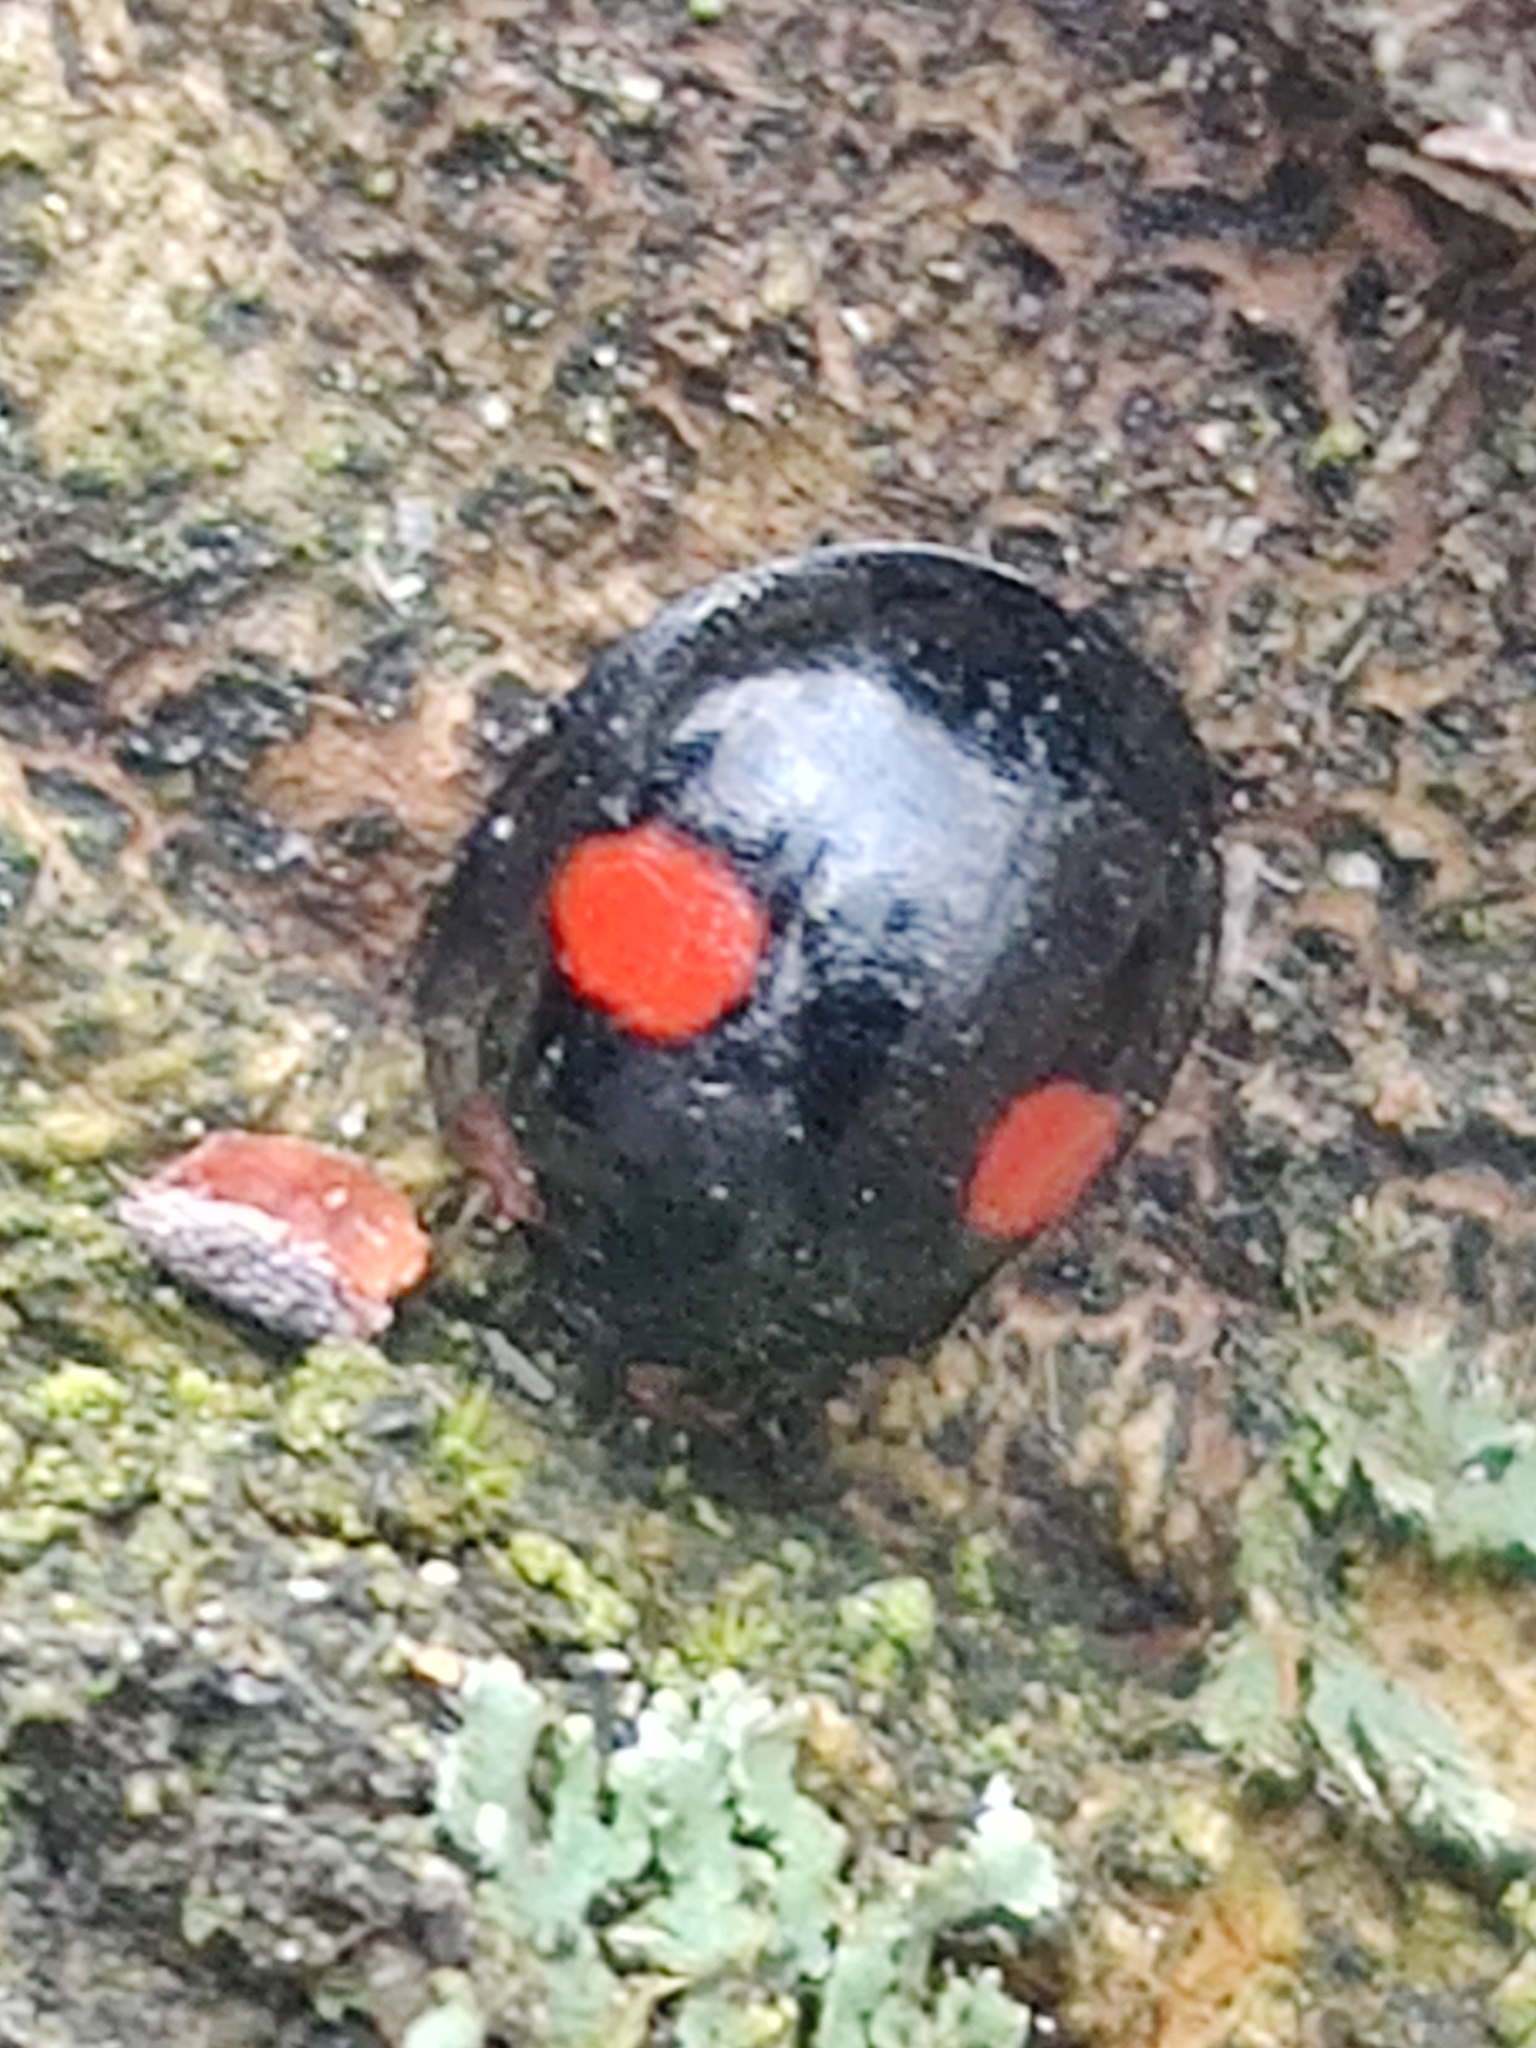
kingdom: Animalia
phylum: Arthropoda
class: Insecta
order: Coleoptera
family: Coccinellidae
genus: Chilocorus
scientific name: Chilocorus renipustulatus
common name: Kidney-spot ladybird
